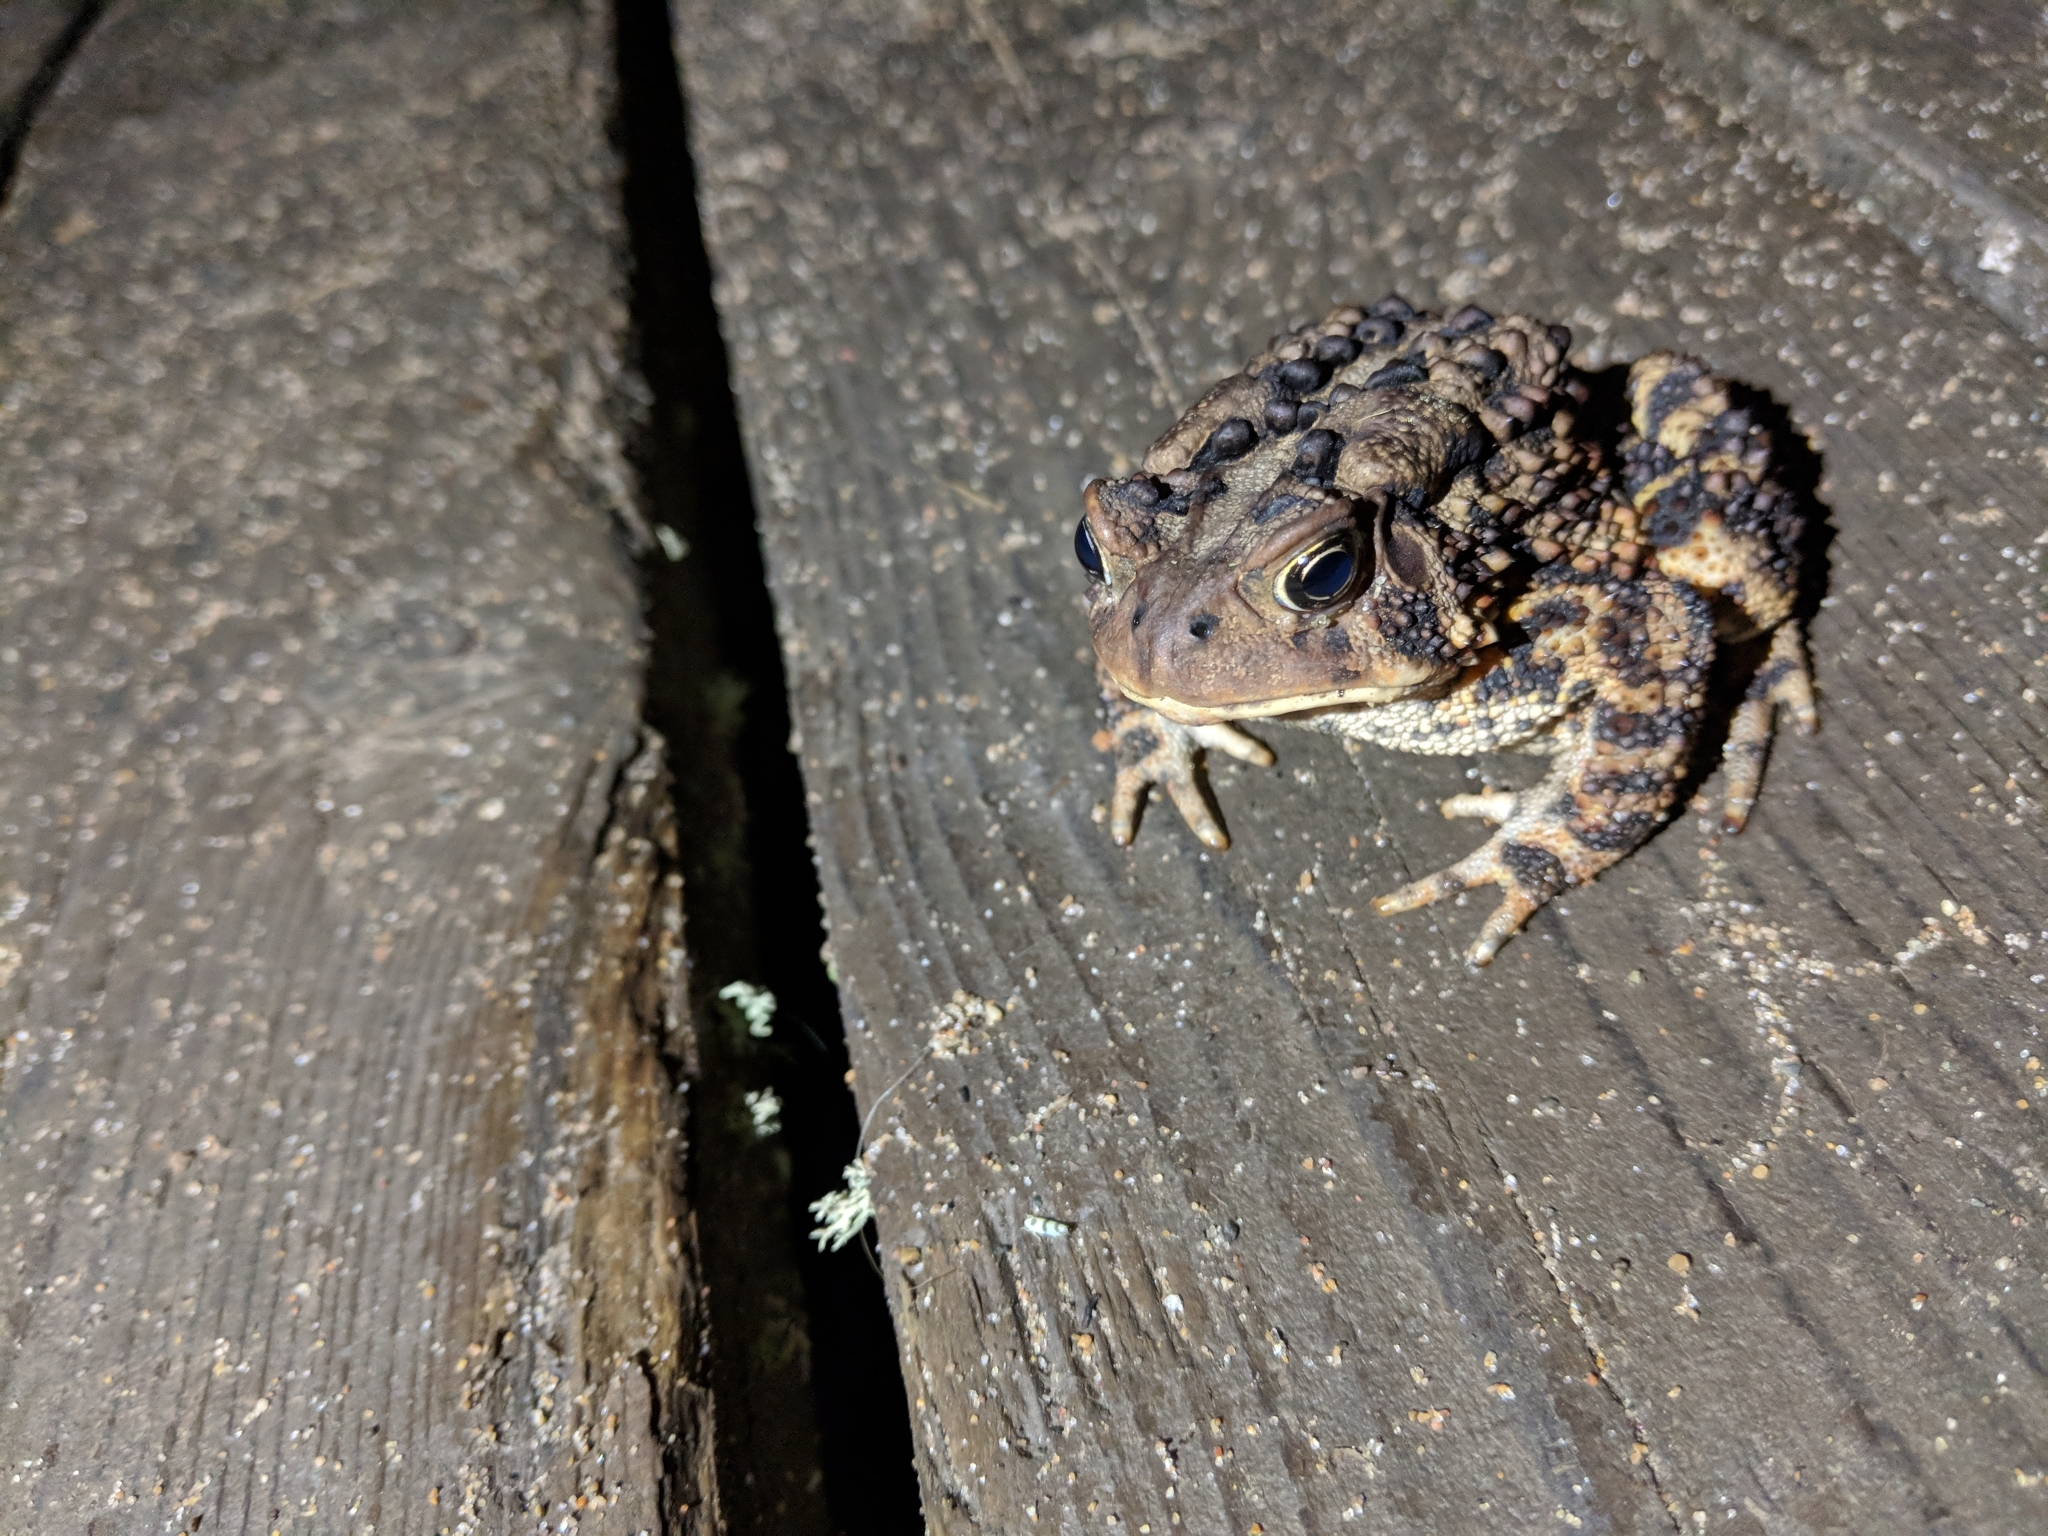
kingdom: Animalia
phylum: Chordata
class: Amphibia
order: Anura
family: Bufonidae
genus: Anaxyrus
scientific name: Anaxyrus americanus
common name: American toad
